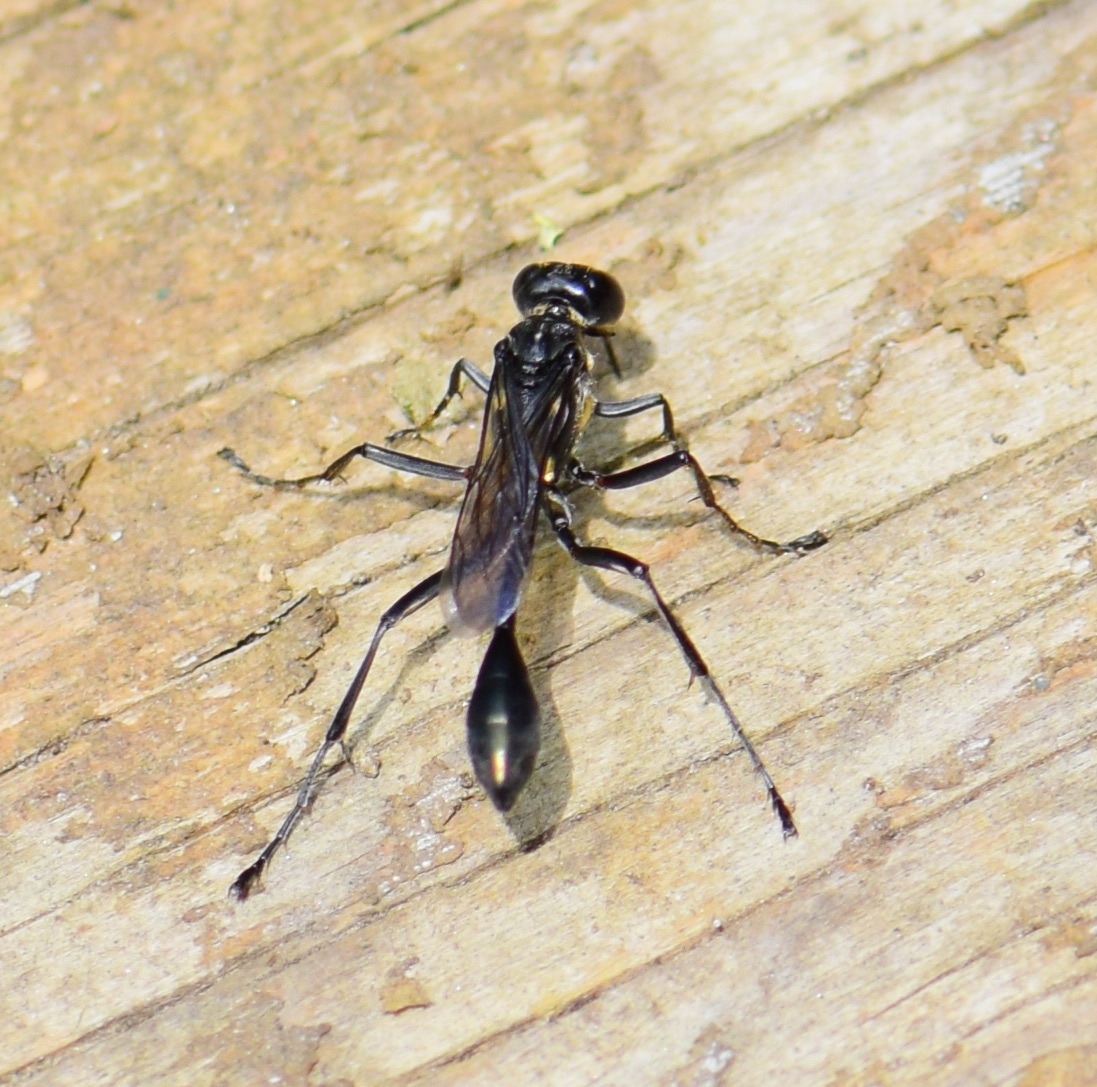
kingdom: Animalia
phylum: Arthropoda
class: Insecta
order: Hymenoptera
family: Sphecidae
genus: Eremnophila
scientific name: Eremnophila aureonotata
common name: Gold-marked thread-waisted wasp
